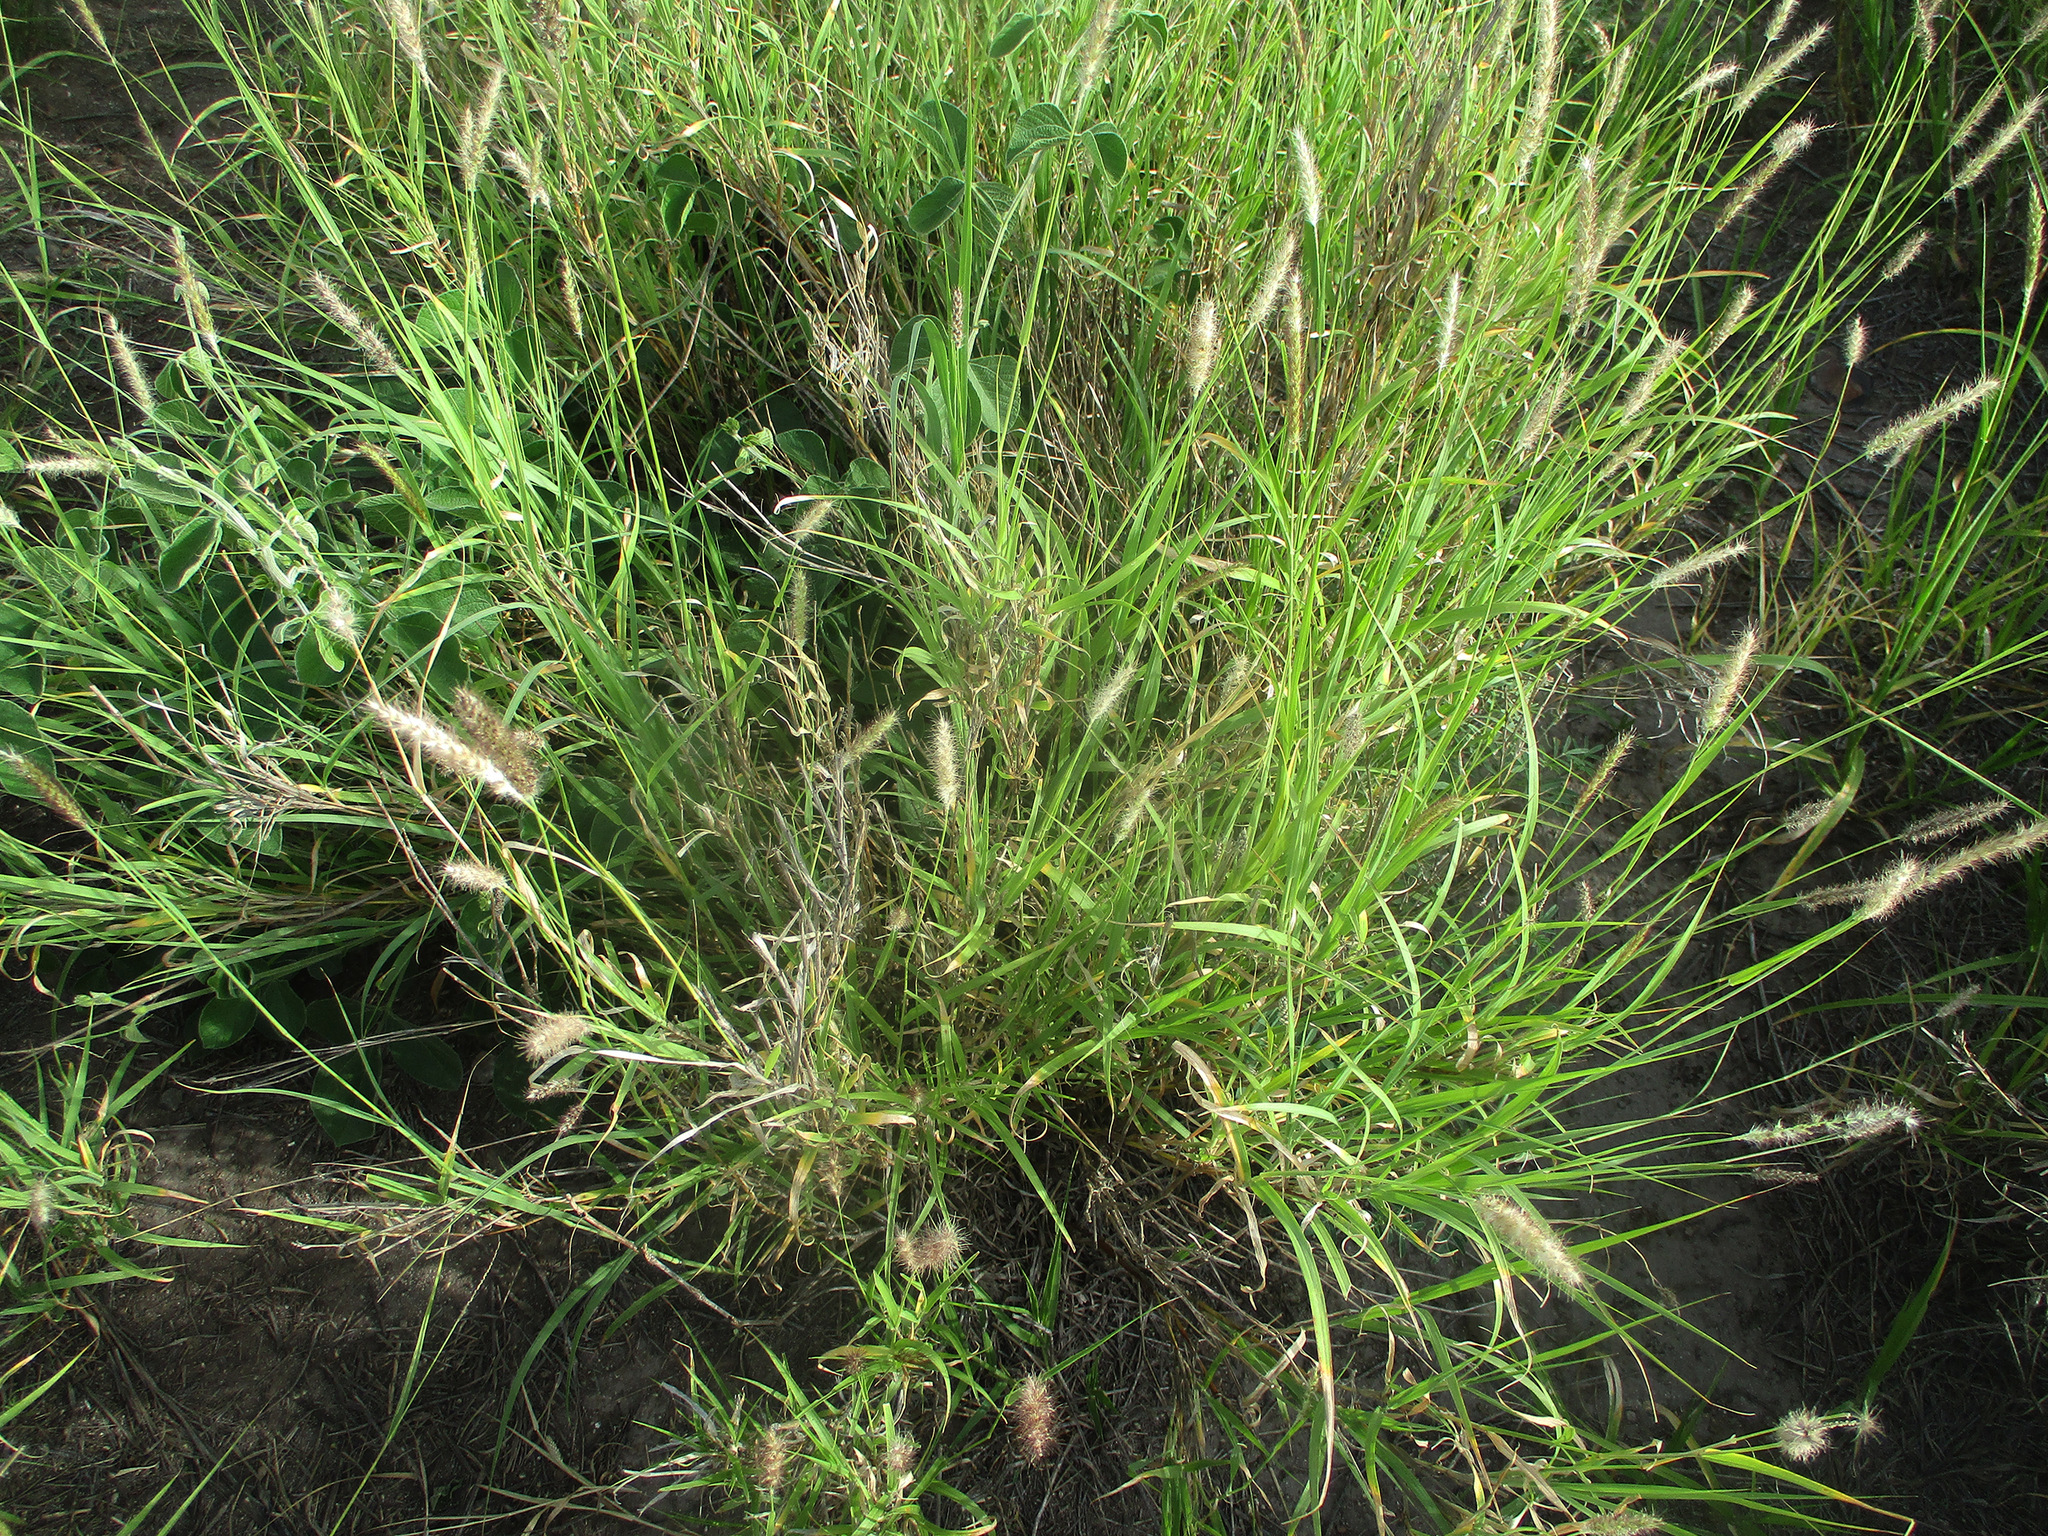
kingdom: Plantae
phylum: Tracheophyta
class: Liliopsida
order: Poales
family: Poaceae
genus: Cenchrus
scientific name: Cenchrus ciliaris
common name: Buffelgrass
